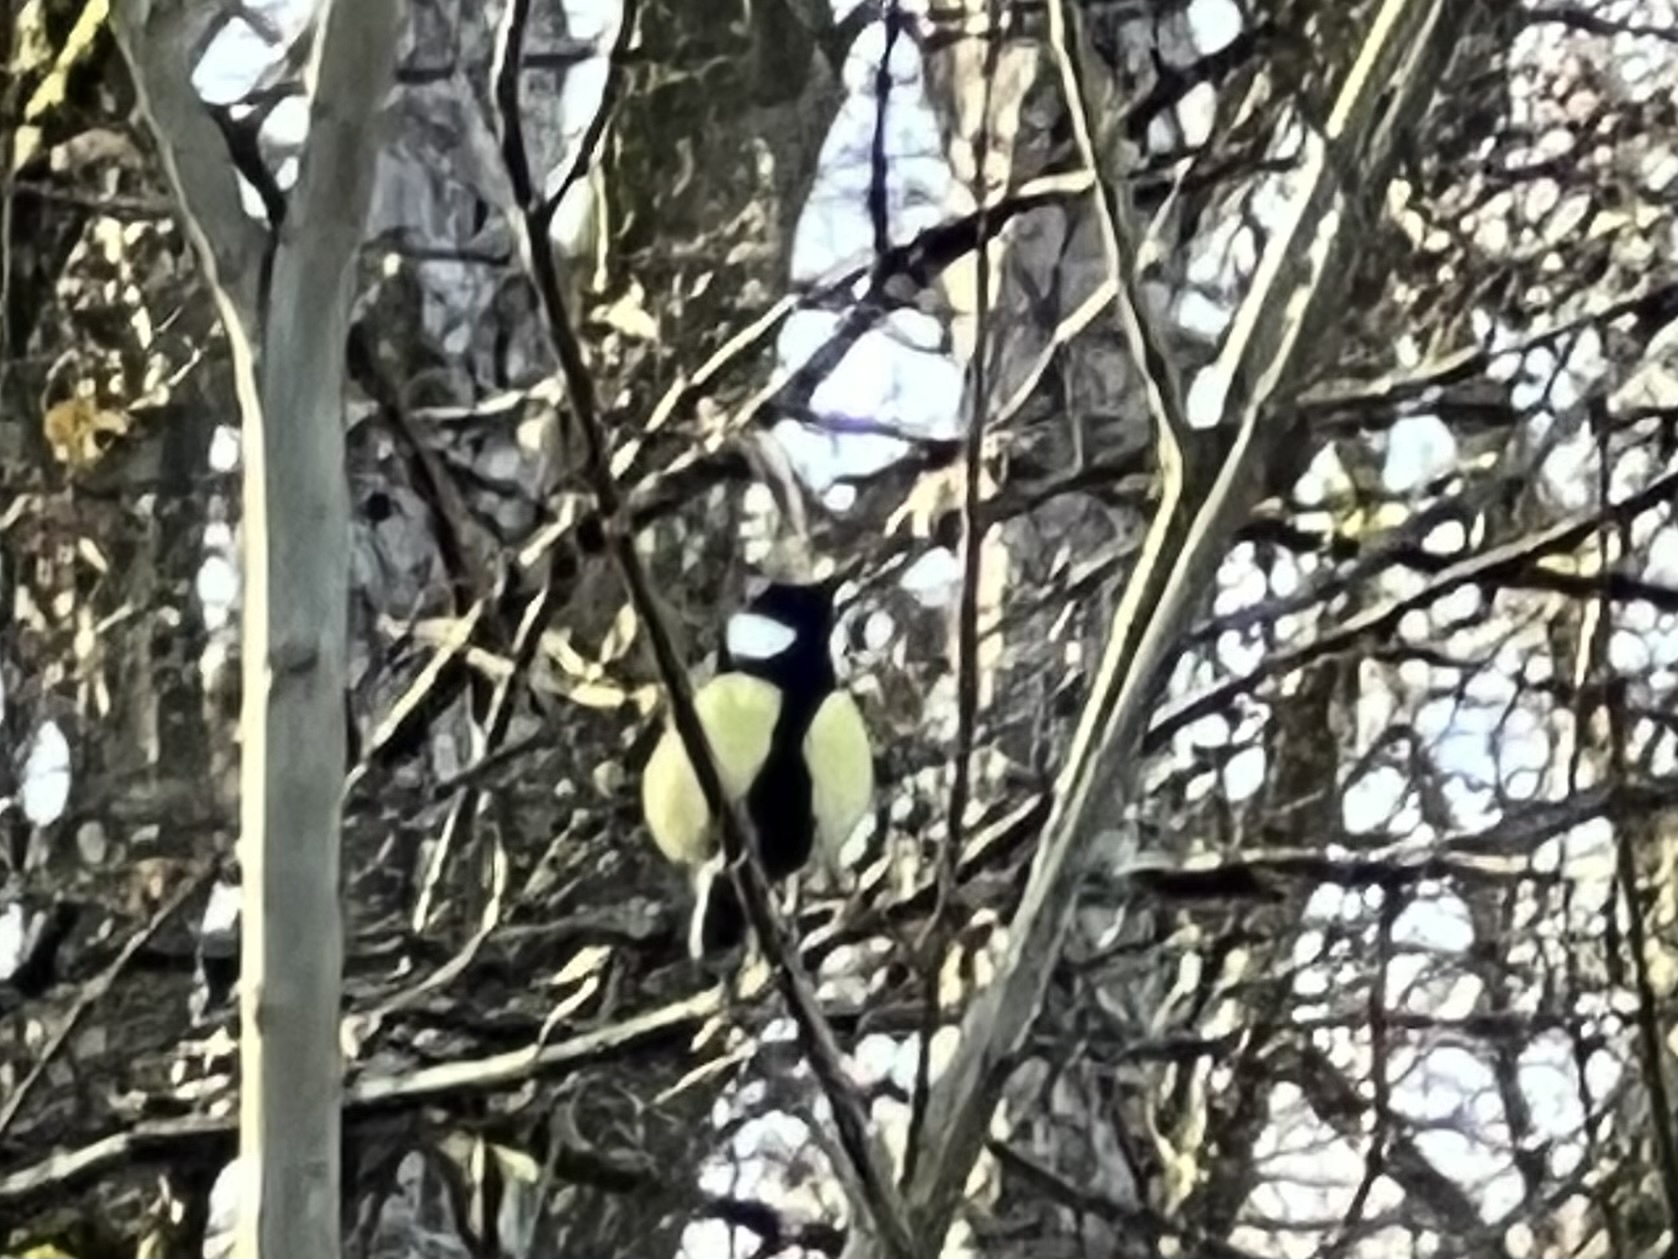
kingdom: Animalia
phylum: Chordata
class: Aves
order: Passeriformes
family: Paridae
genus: Parus
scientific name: Parus major
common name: Great tit
